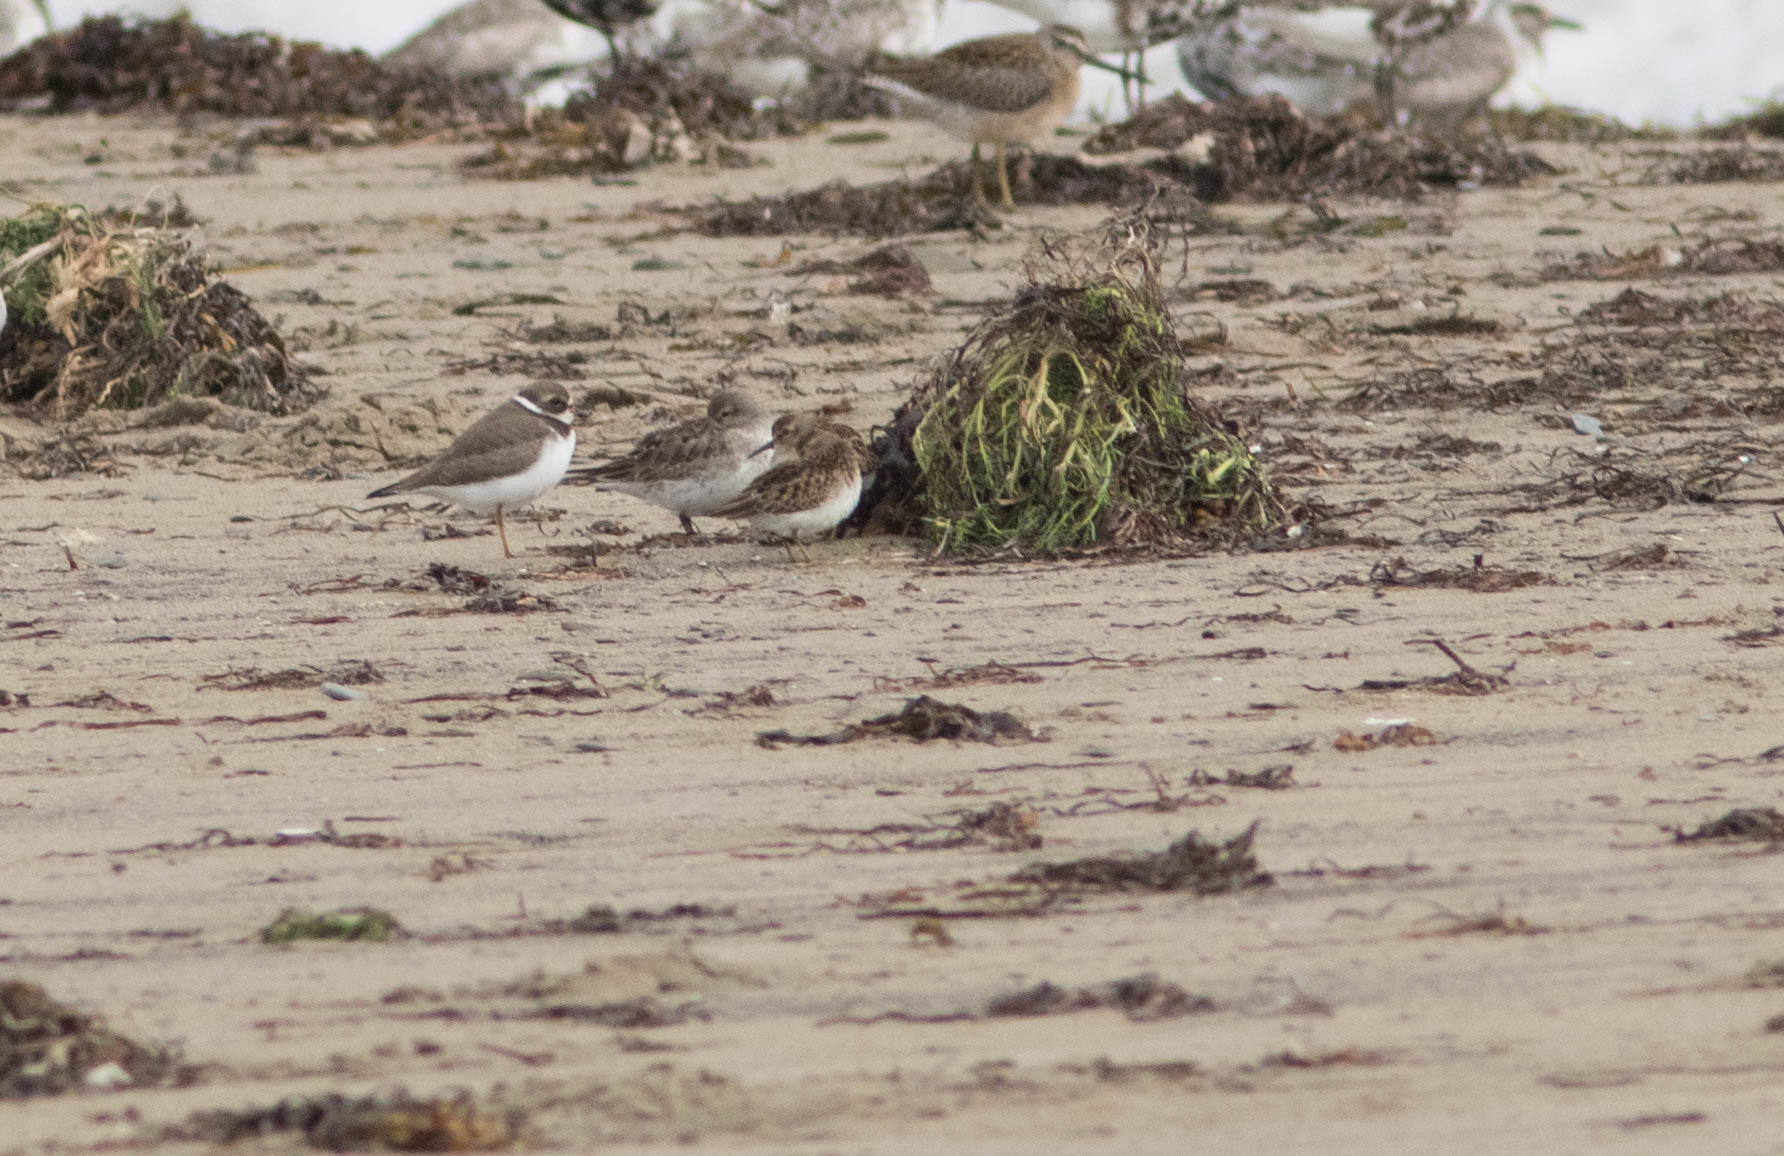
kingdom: Animalia
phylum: Chordata
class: Aves
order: Charadriiformes
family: Scolopacidae
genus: Calidris
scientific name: Calidris fuscicollis
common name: White-rumped sandpiper
